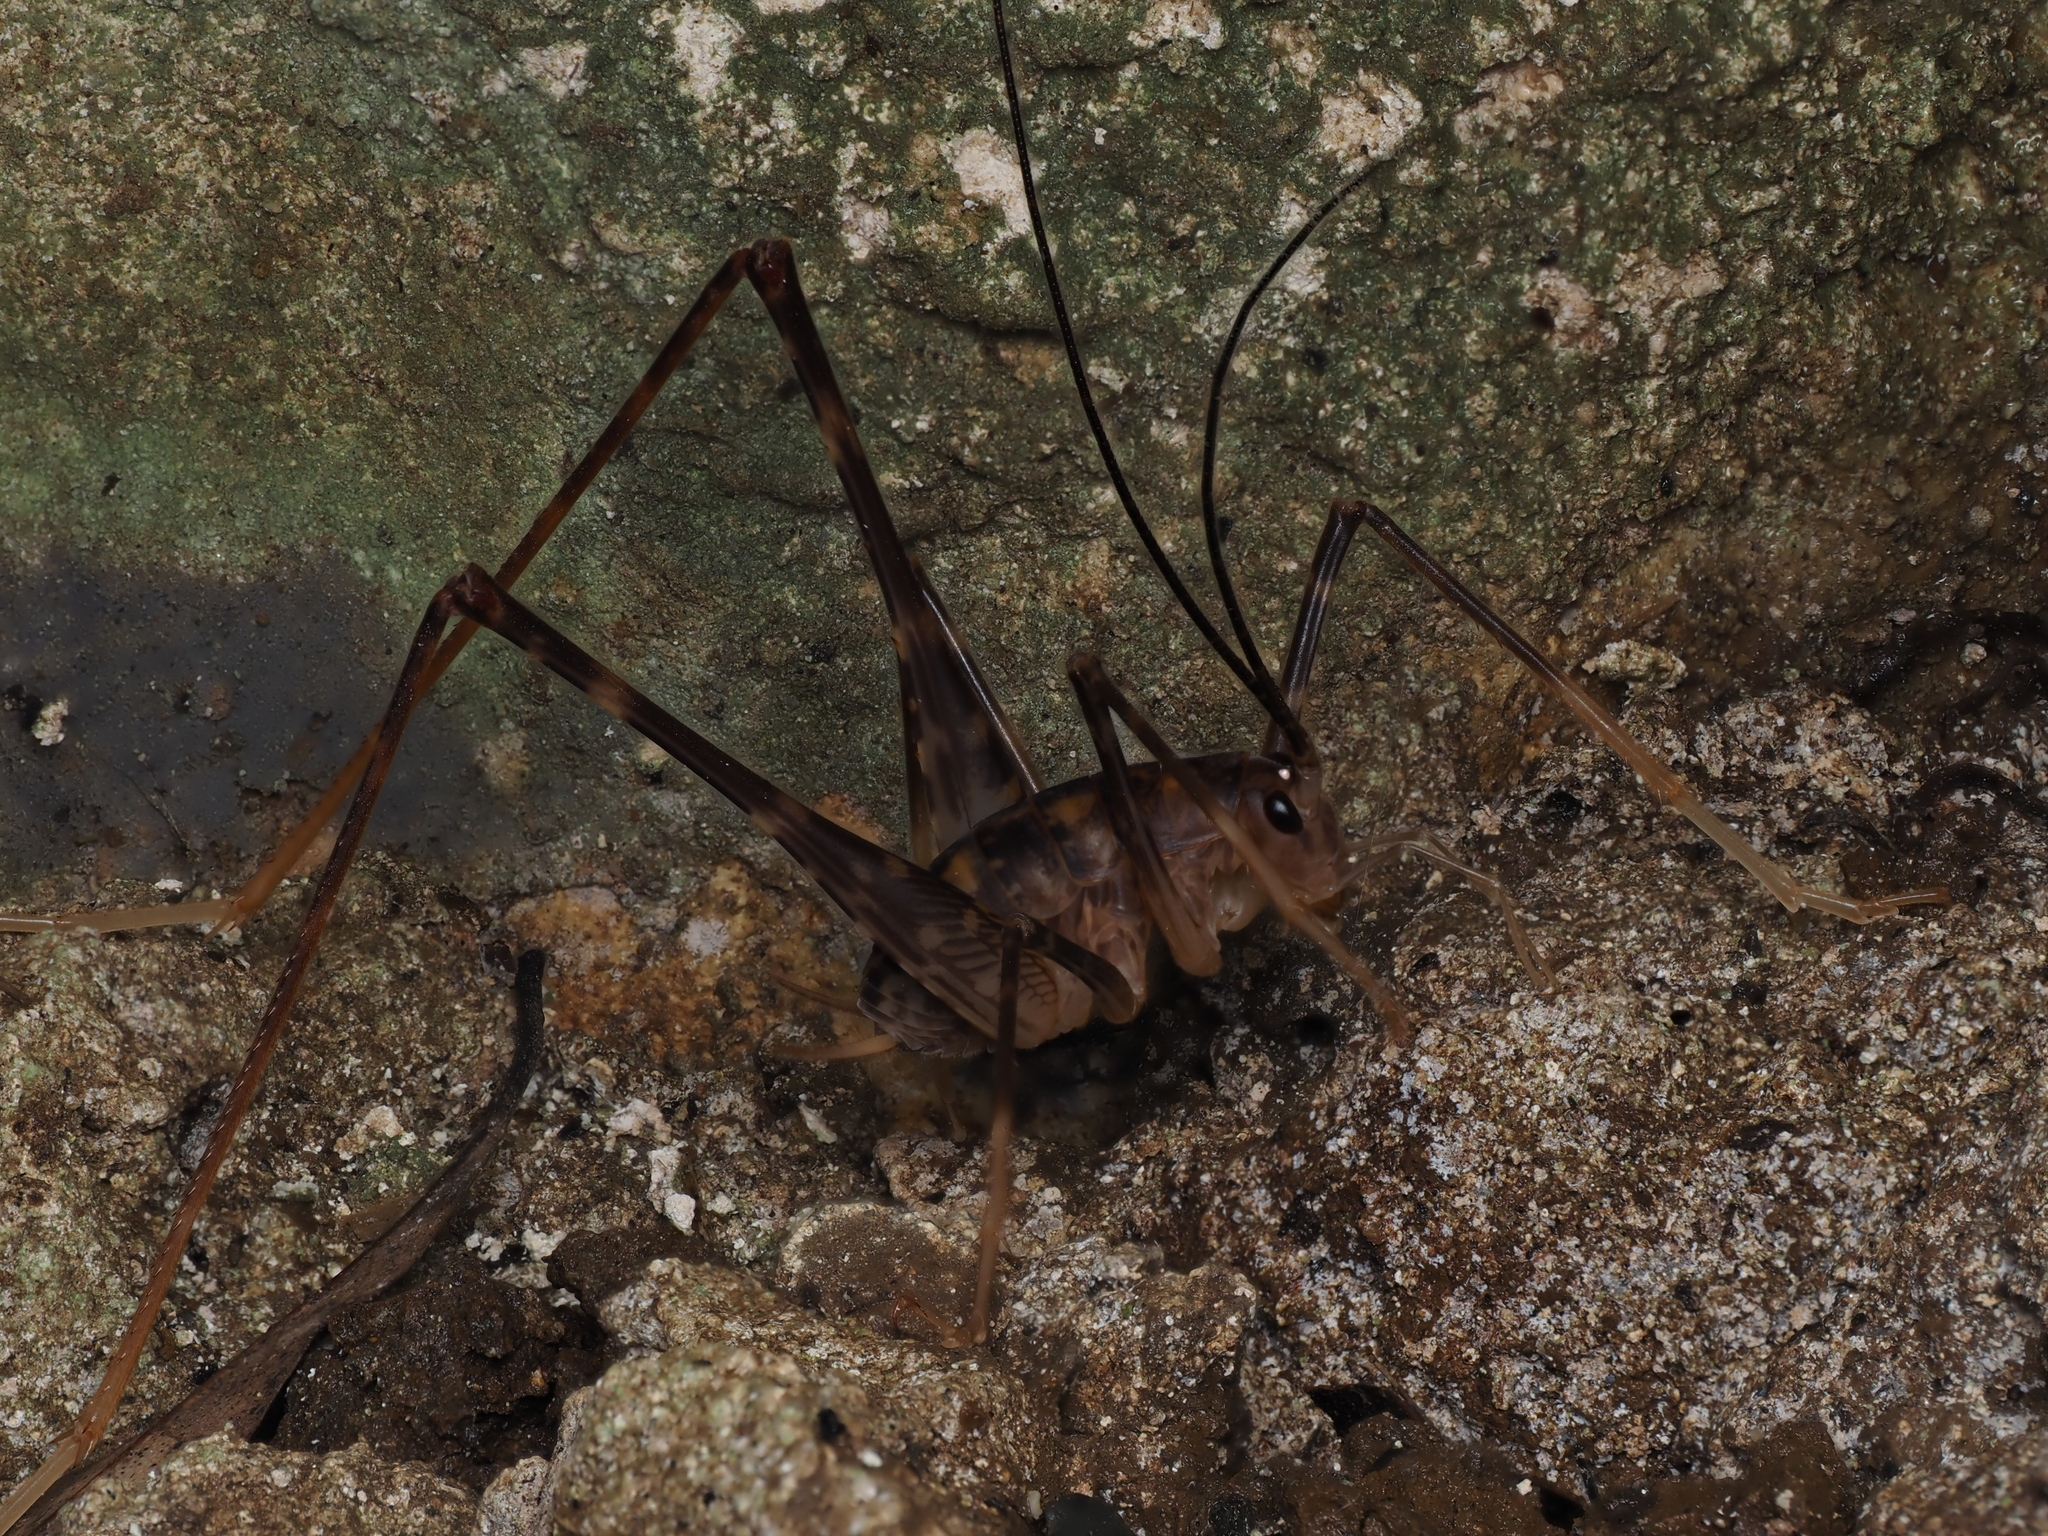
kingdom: Animalia
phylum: Arthropoda
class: Insecta
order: Orthoptera
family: Rhaphidophoridae
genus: Pachyrhamma
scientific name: Pachyrhamma waitomoensis
